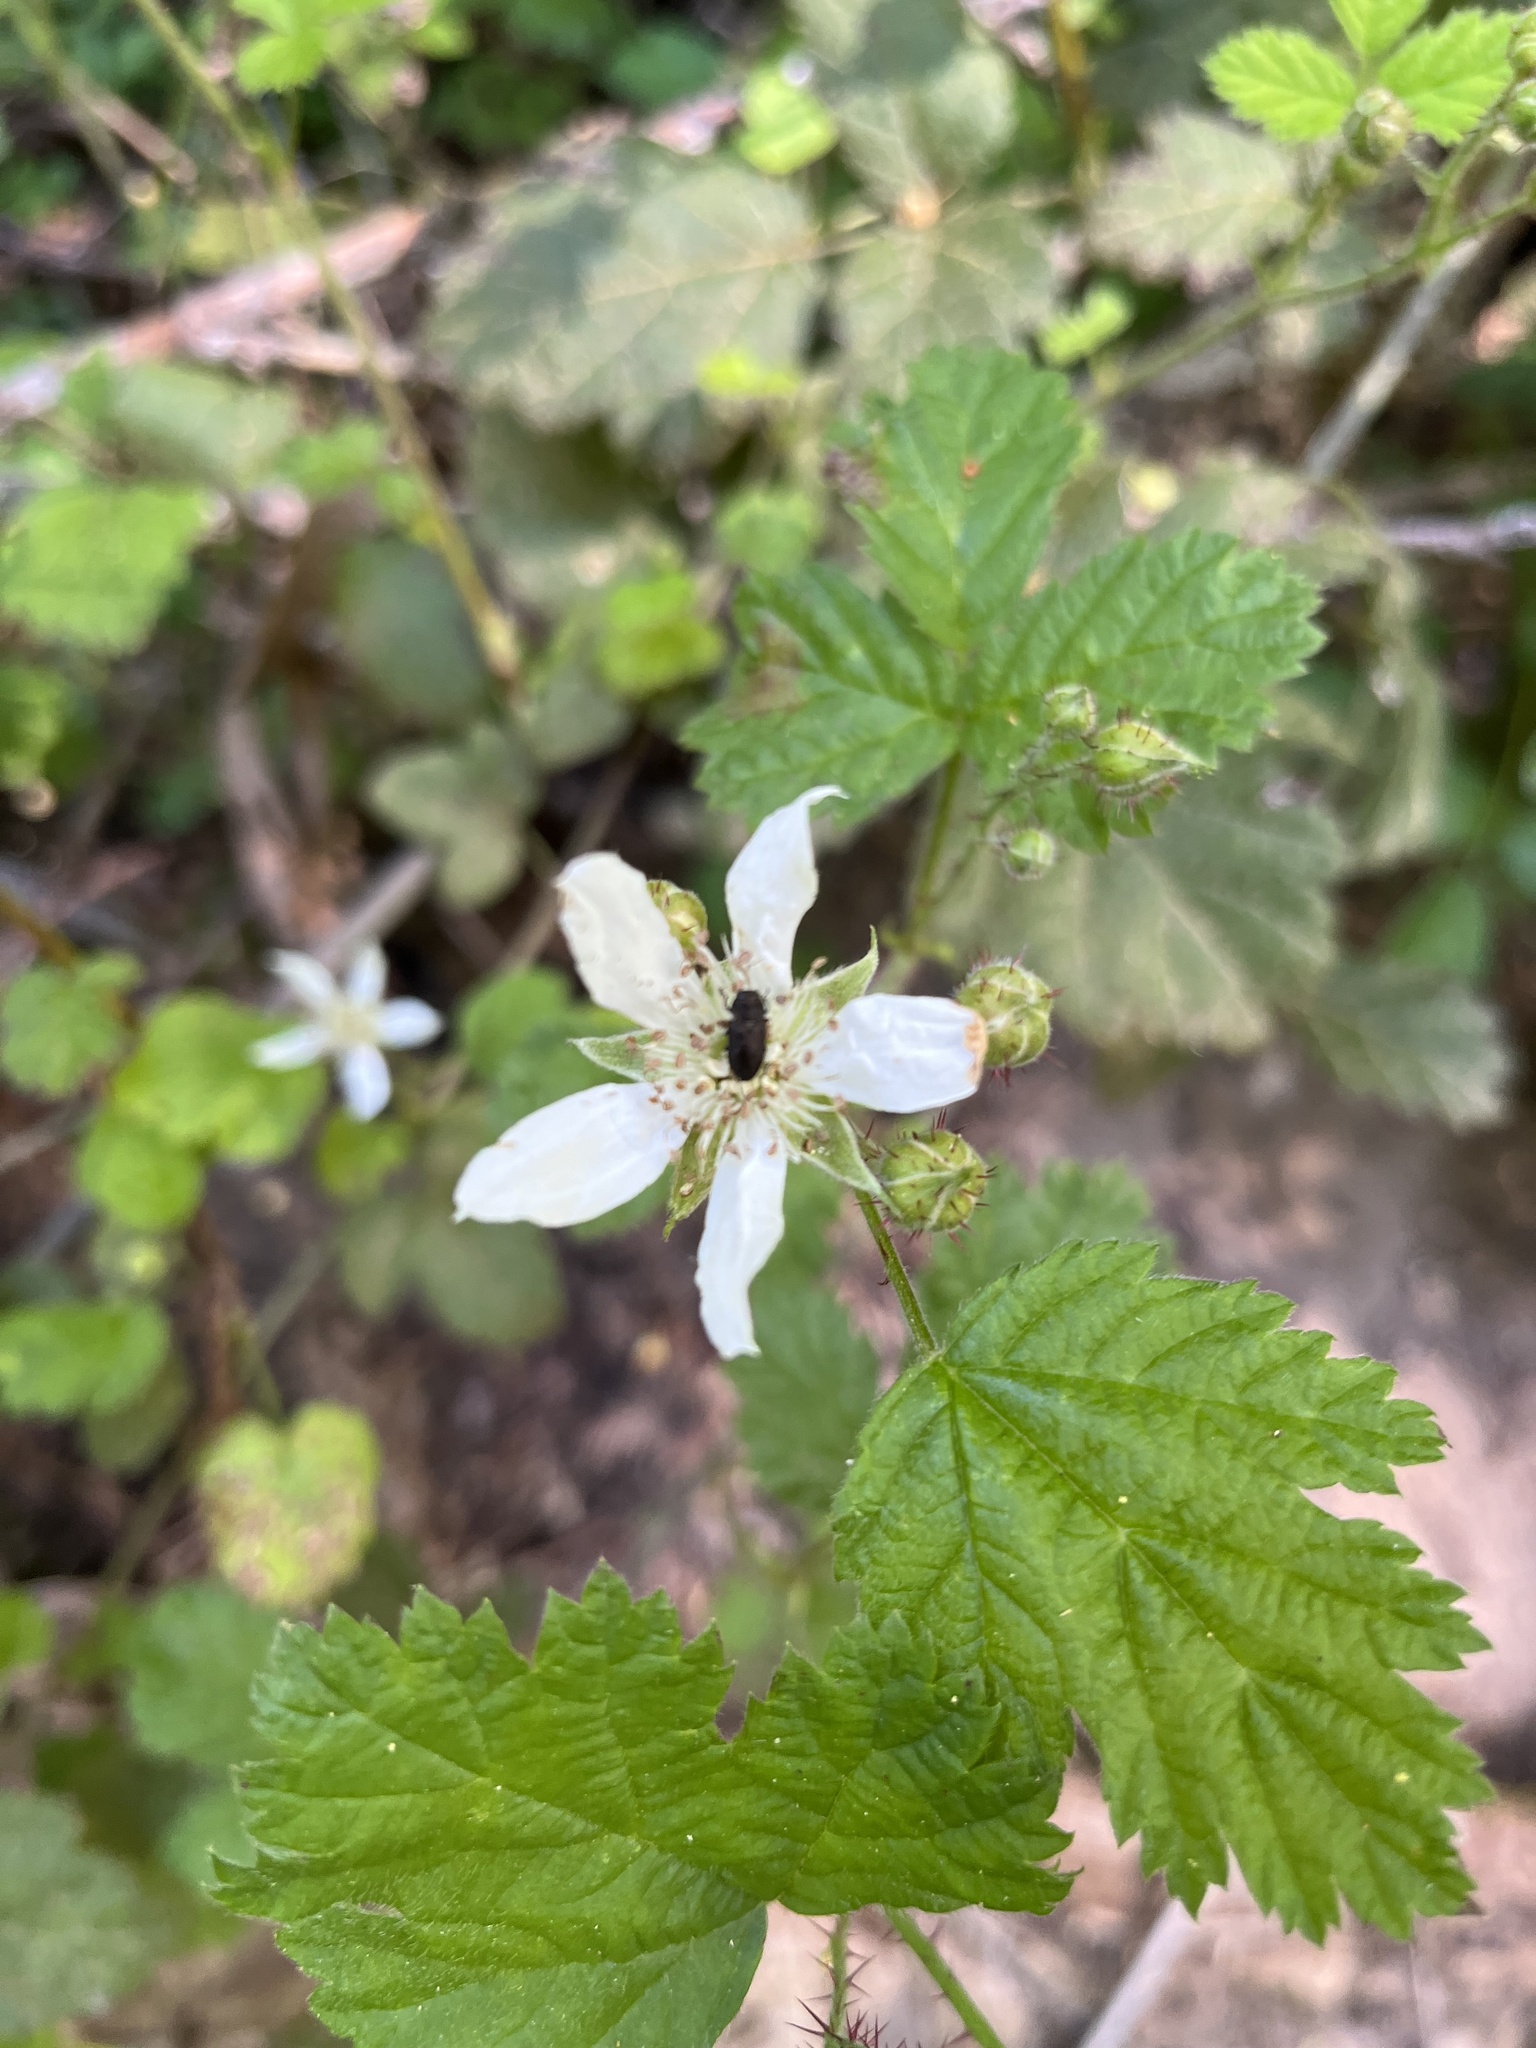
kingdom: Plantae
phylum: Tracheophyta
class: Magnoliopsida
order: Rosales
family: Rosaceae
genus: Rubus
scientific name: Rubus ursinus
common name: Pacific blackberry
